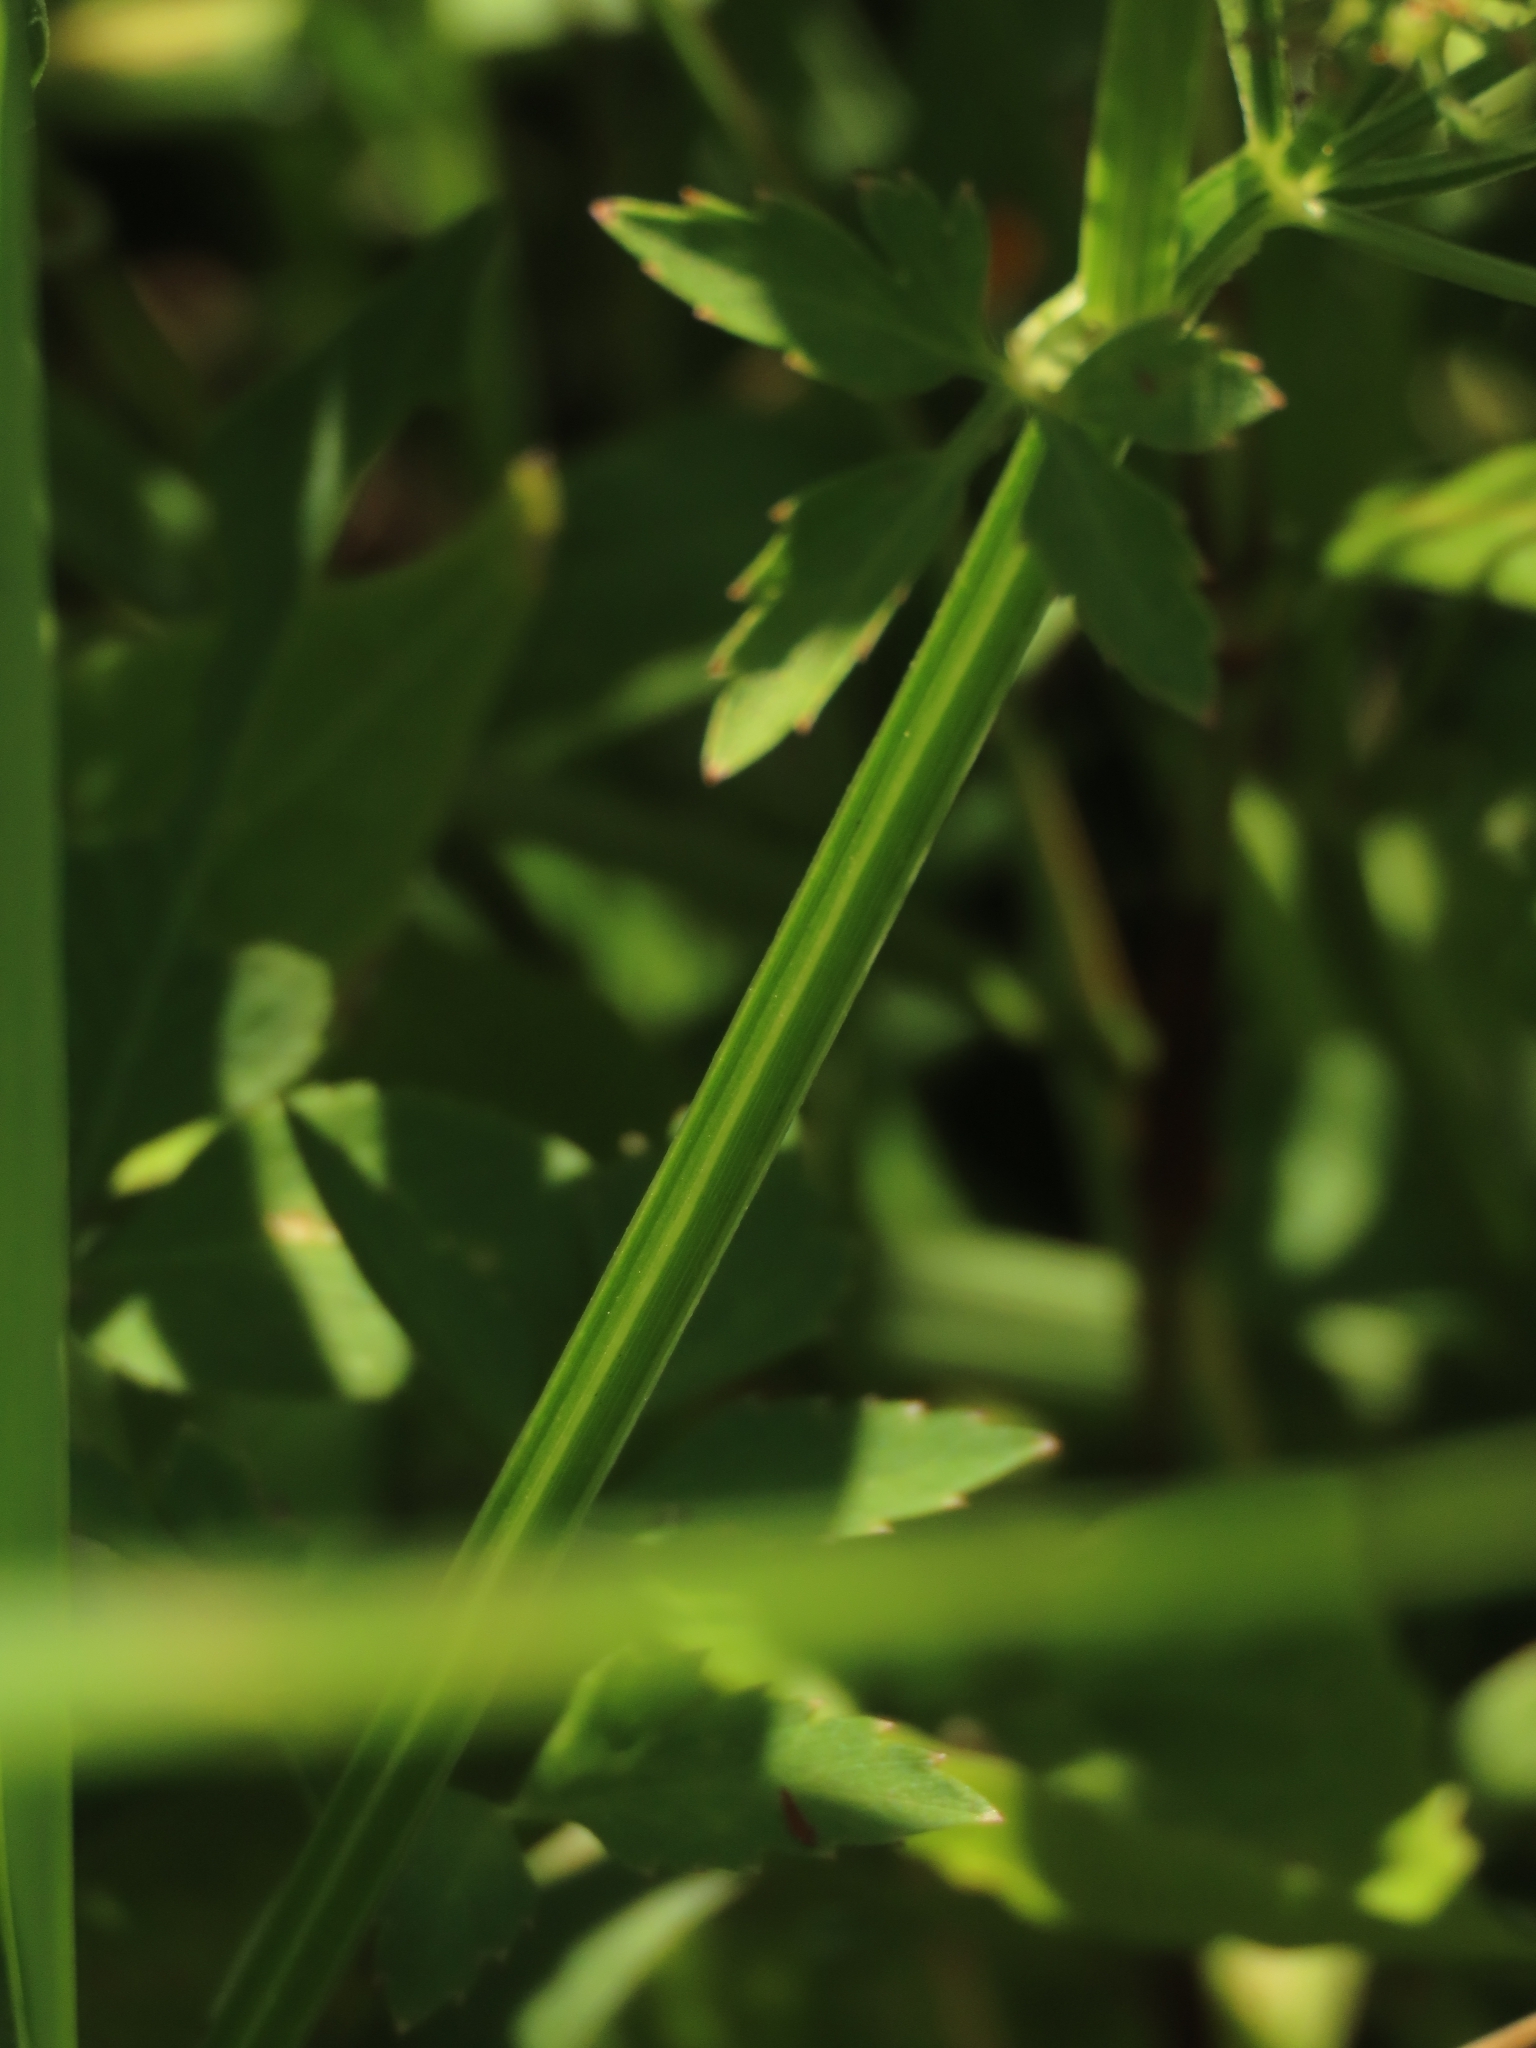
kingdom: Plantae
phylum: Tracheophyta
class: Magnoliopsida
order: Apiales
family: Apiaceae
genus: Oenanthe
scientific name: Oenanthe javanica
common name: Java water-dropwort
